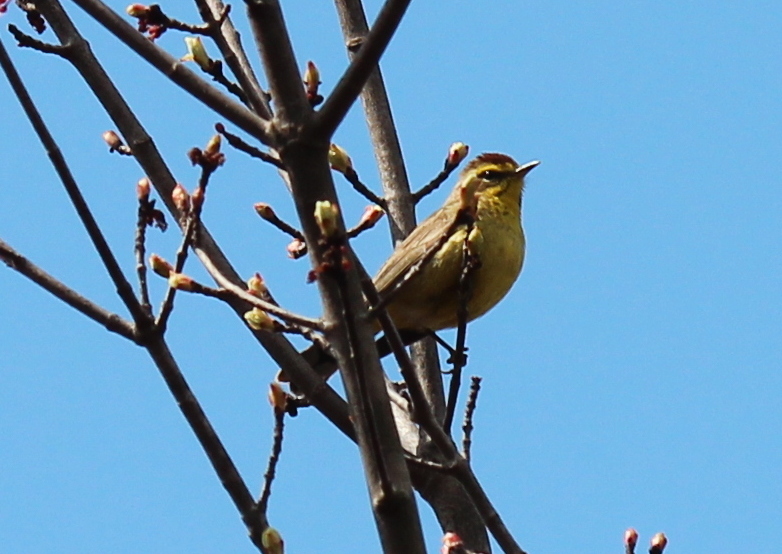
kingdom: Animalia
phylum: Chordata
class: Aves
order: Passeriformes
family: Parulidae
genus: Setophaga
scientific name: Setophaga palmarum
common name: Palm warbler
